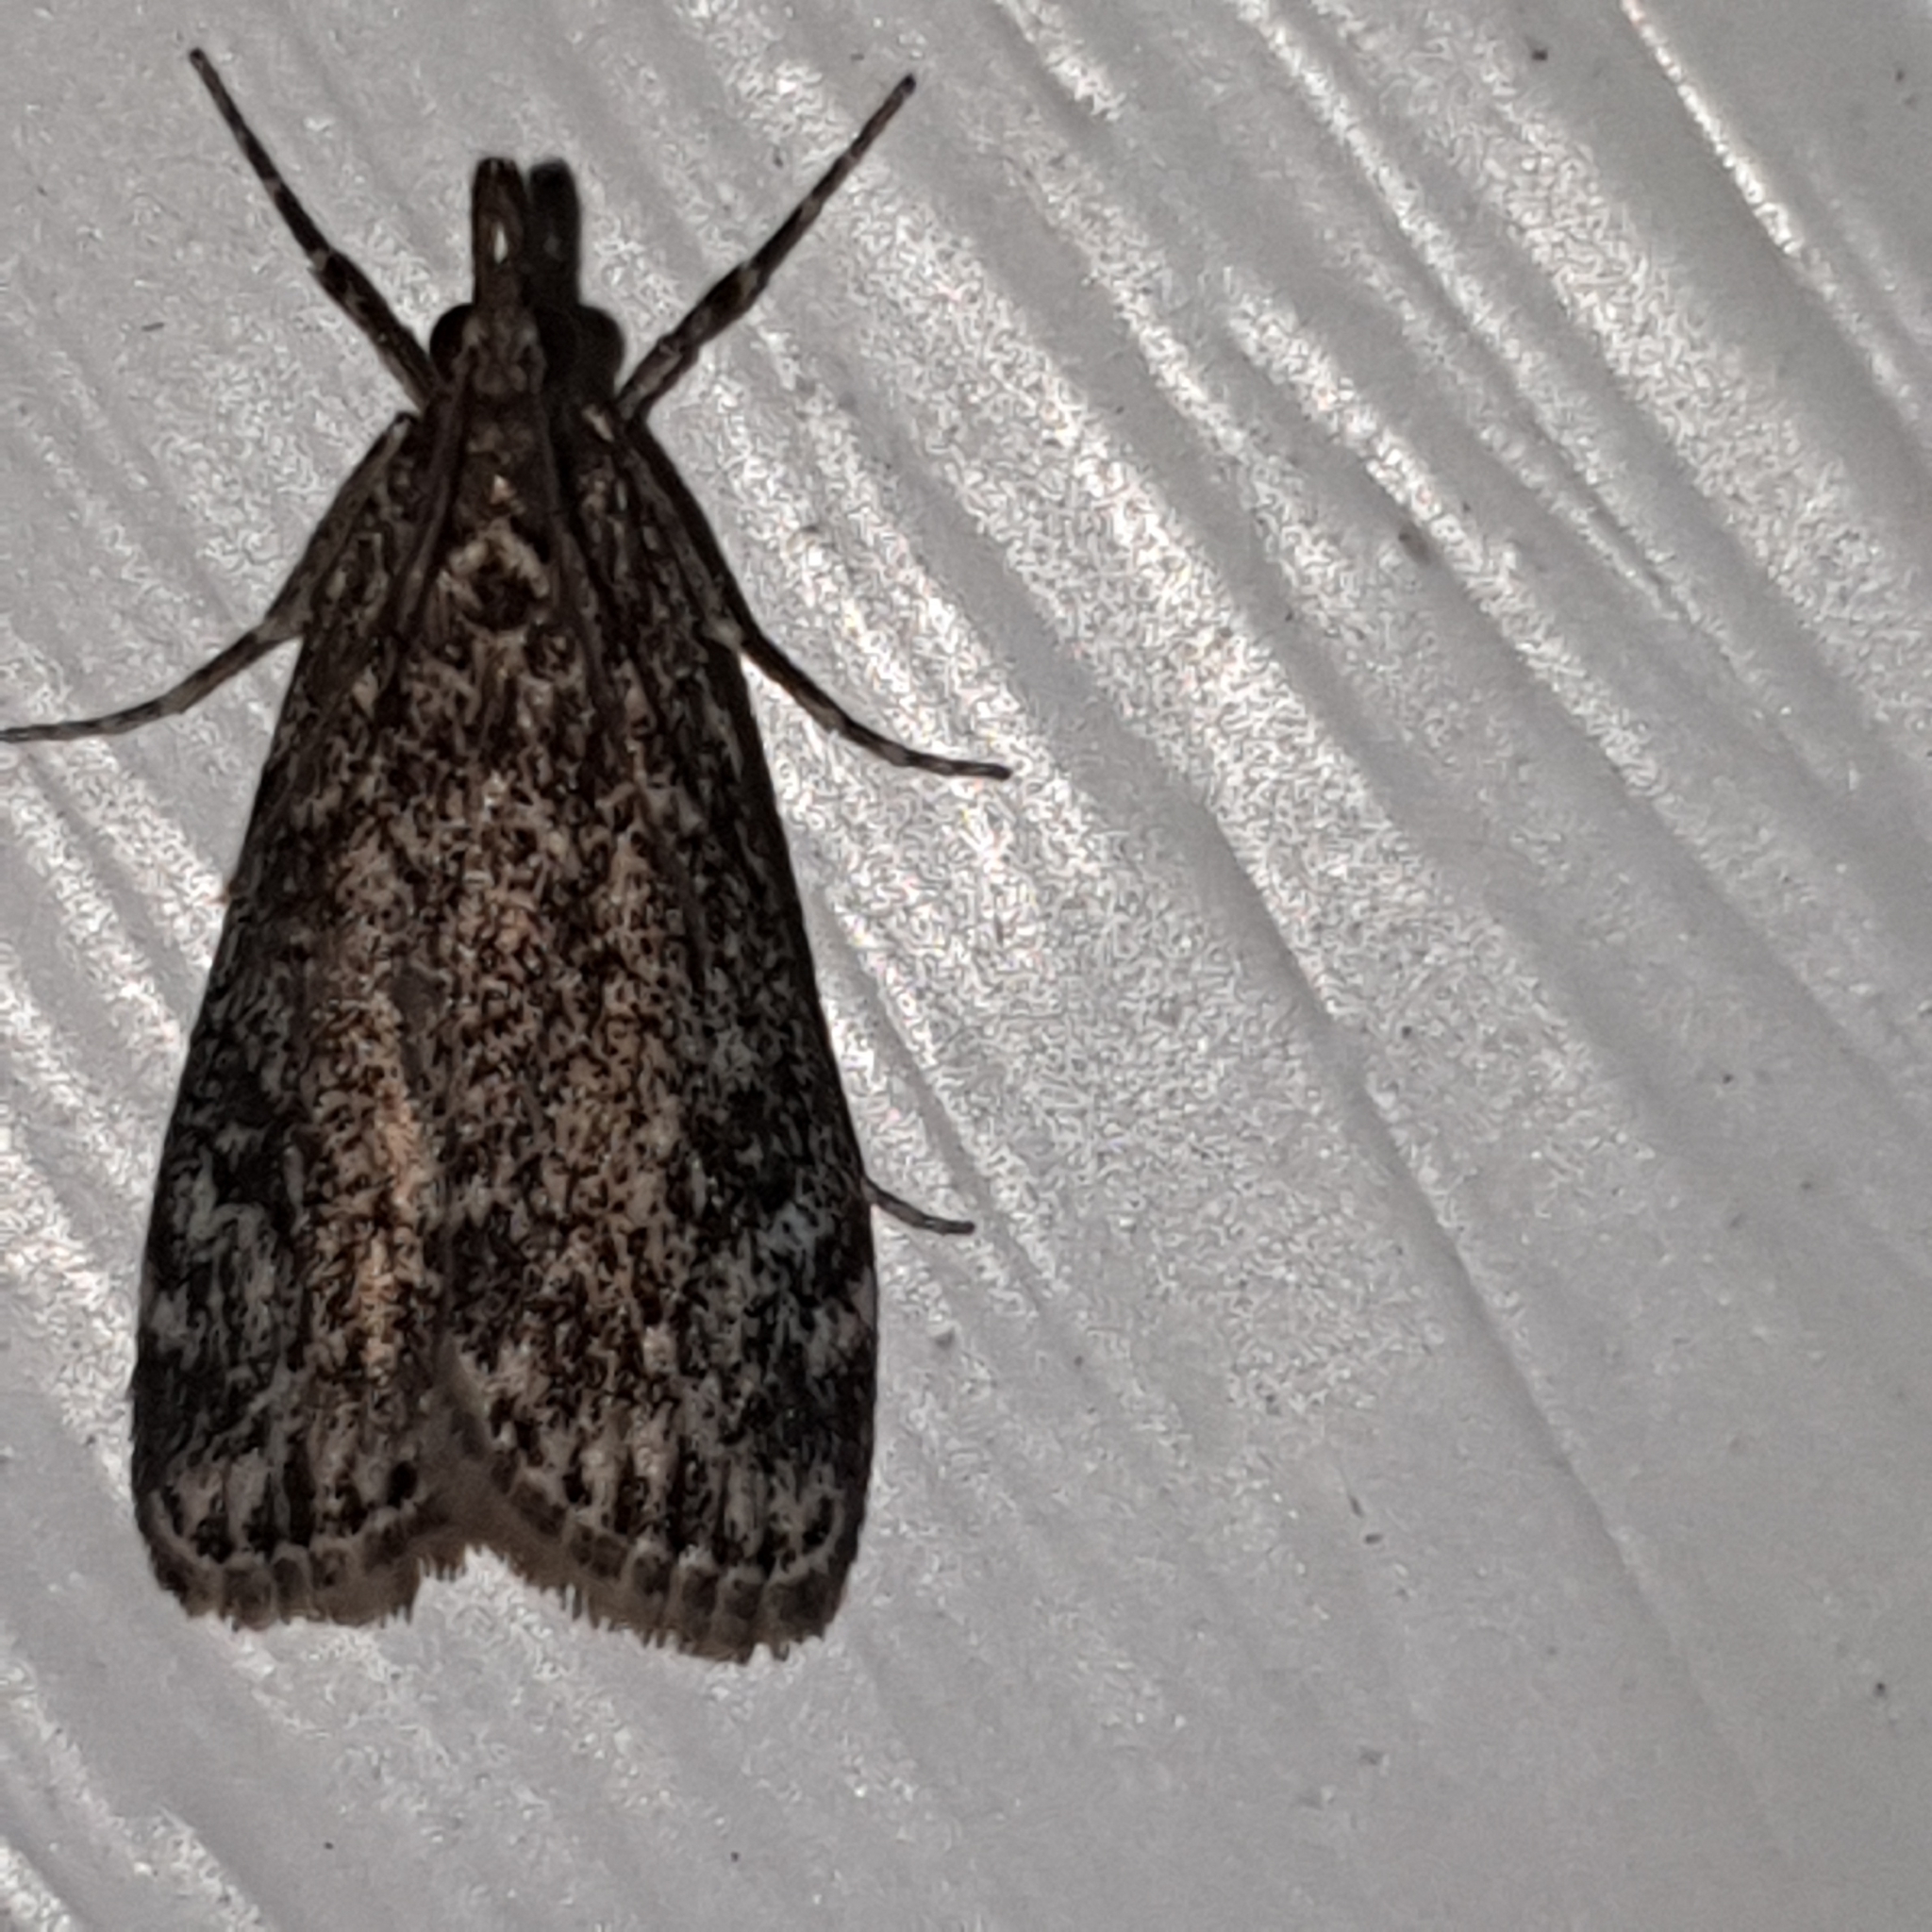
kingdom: Animalia
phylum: Arthropoda
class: Insecta
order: Lepidoptera
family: Crambidae
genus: Eudonia
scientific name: Eudonia truncicolella
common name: Ground-moss grey
